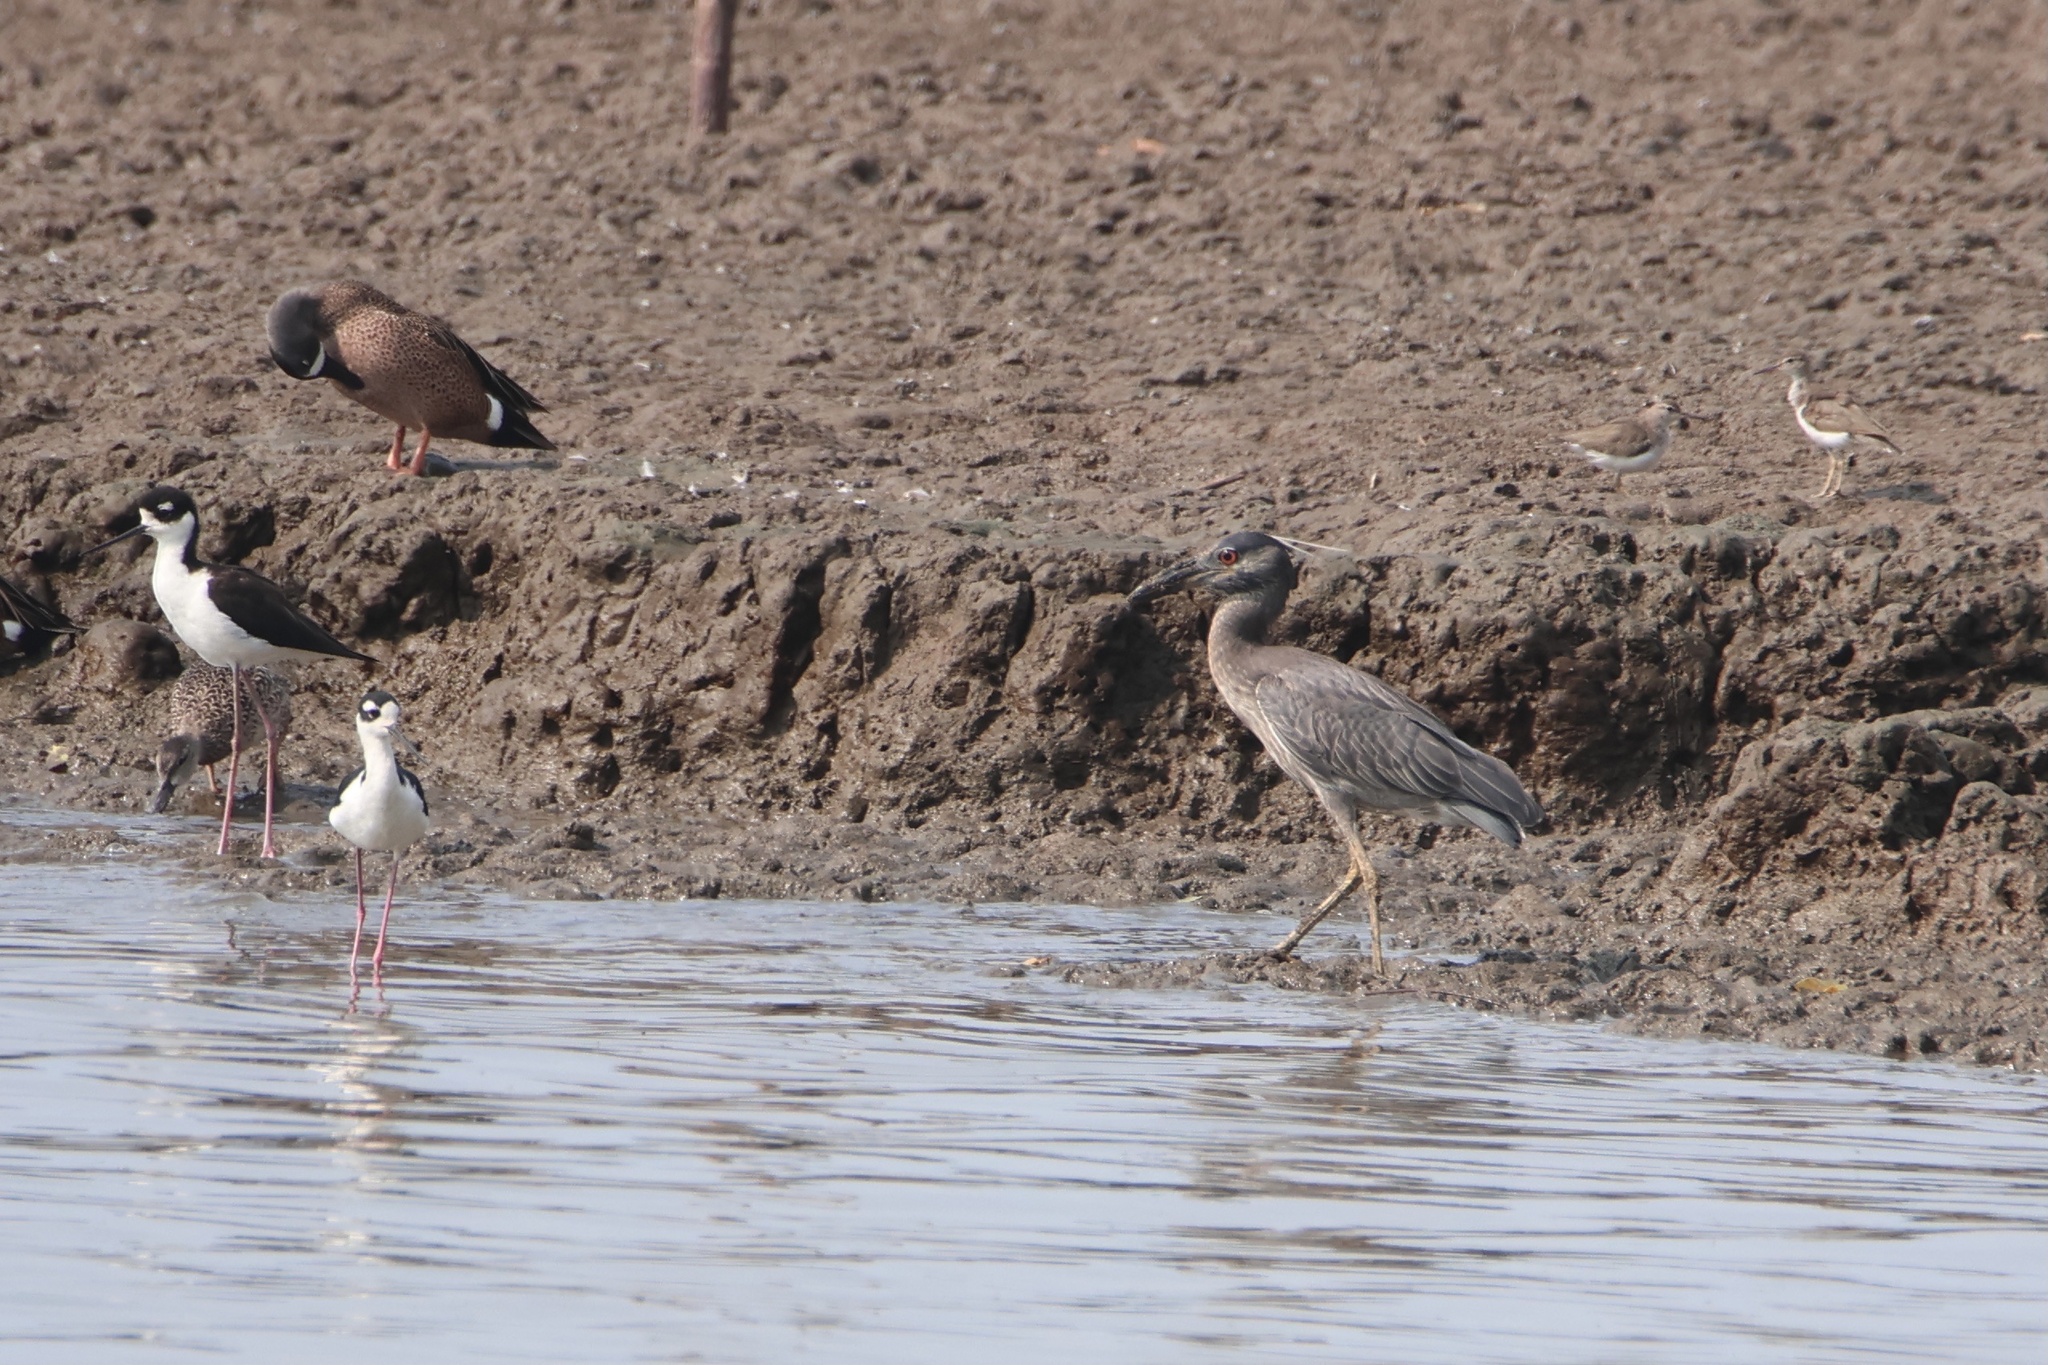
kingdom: Animalia
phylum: Chordata
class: Aves
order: Pelecaniformes
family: Ardeidae
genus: Nyctanassa
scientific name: Nyctanassa violacea
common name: Yellow-crowned night heron
